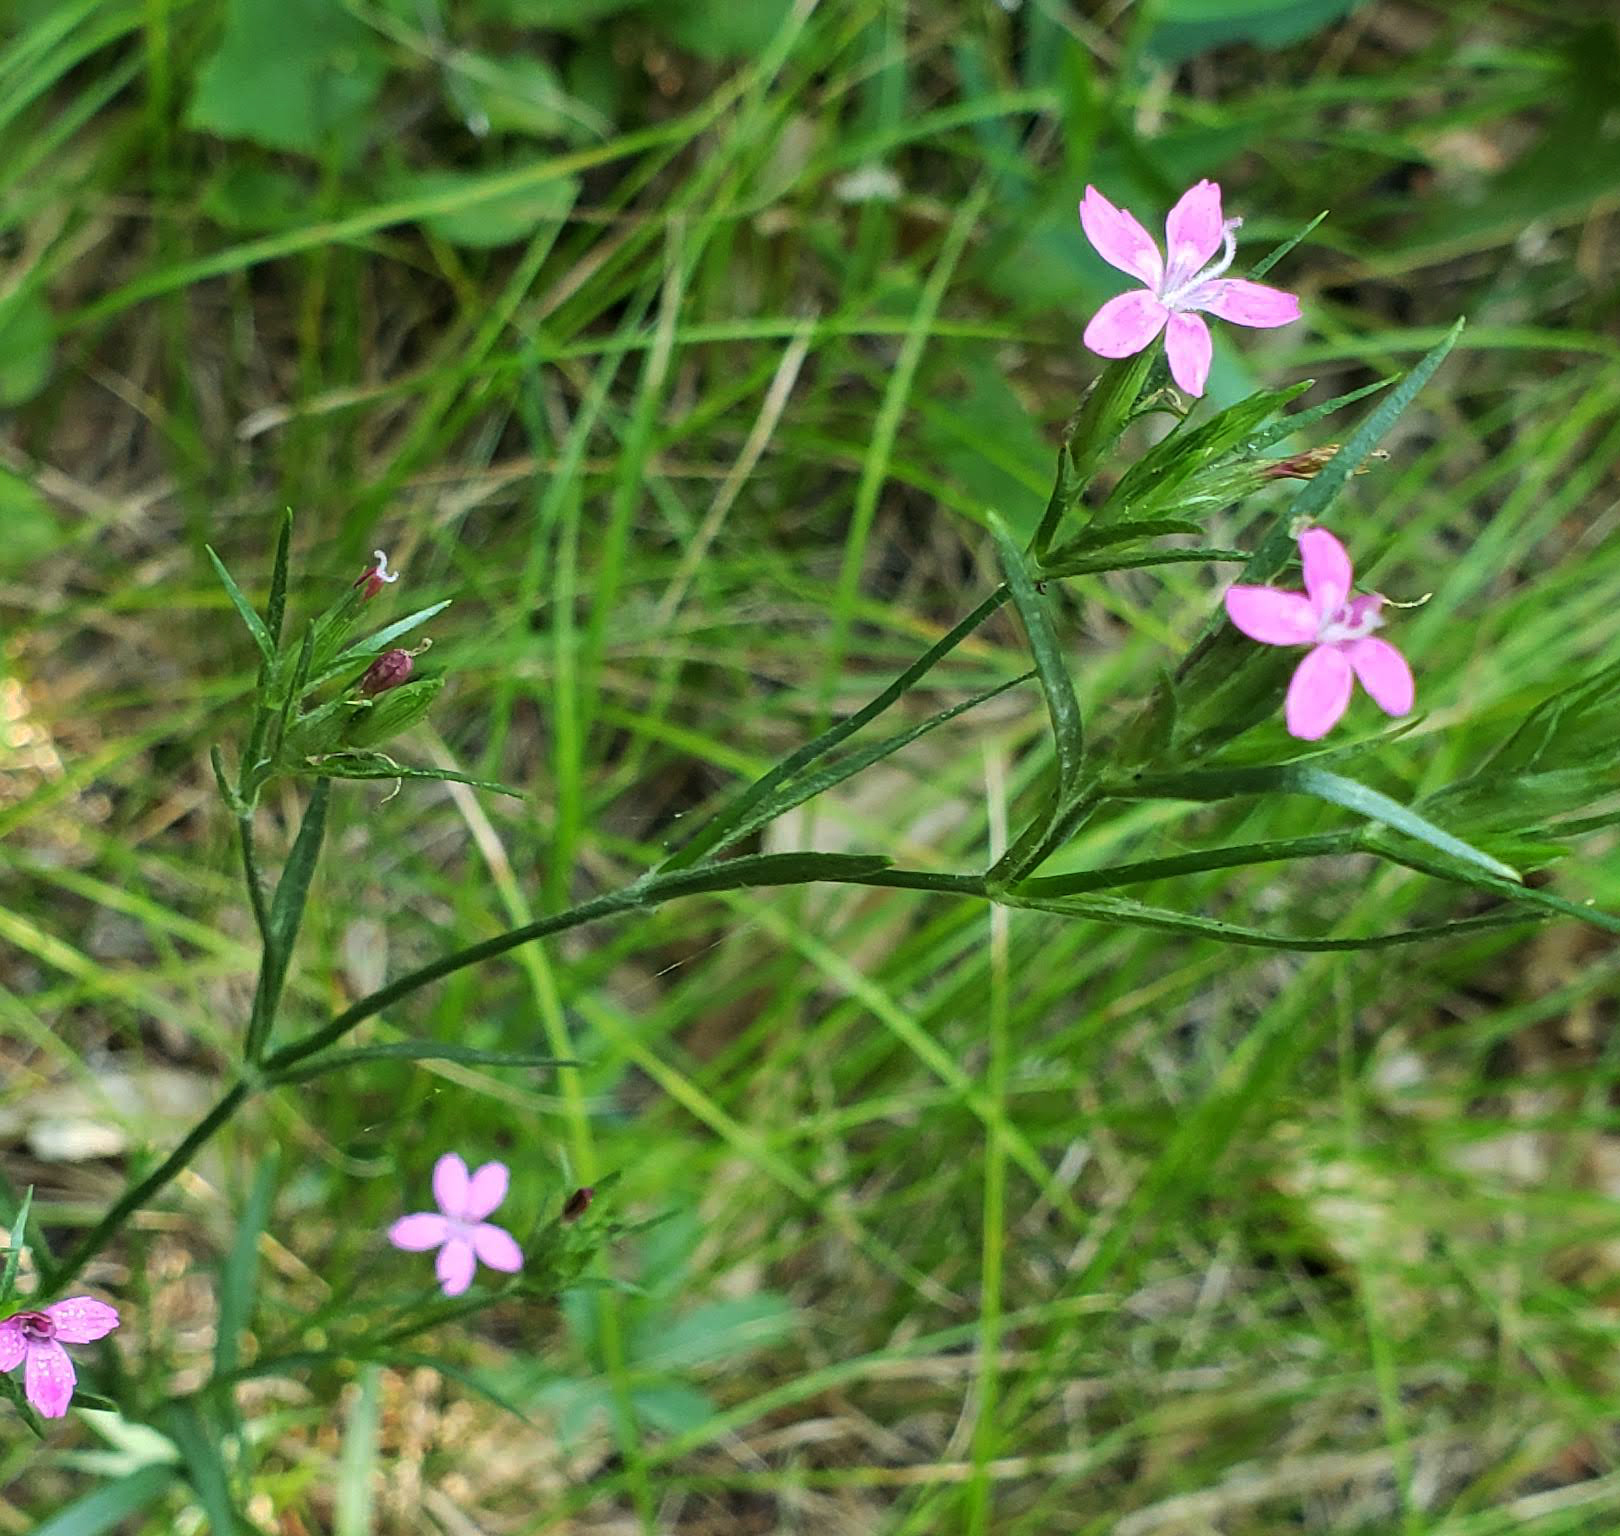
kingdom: Plantae
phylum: Tracheophyta
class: Magnoliopsida
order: Caryophyllales
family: Caryophyllaceae
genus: Dianthus
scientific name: Dianthus armeria
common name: Deptford pink
